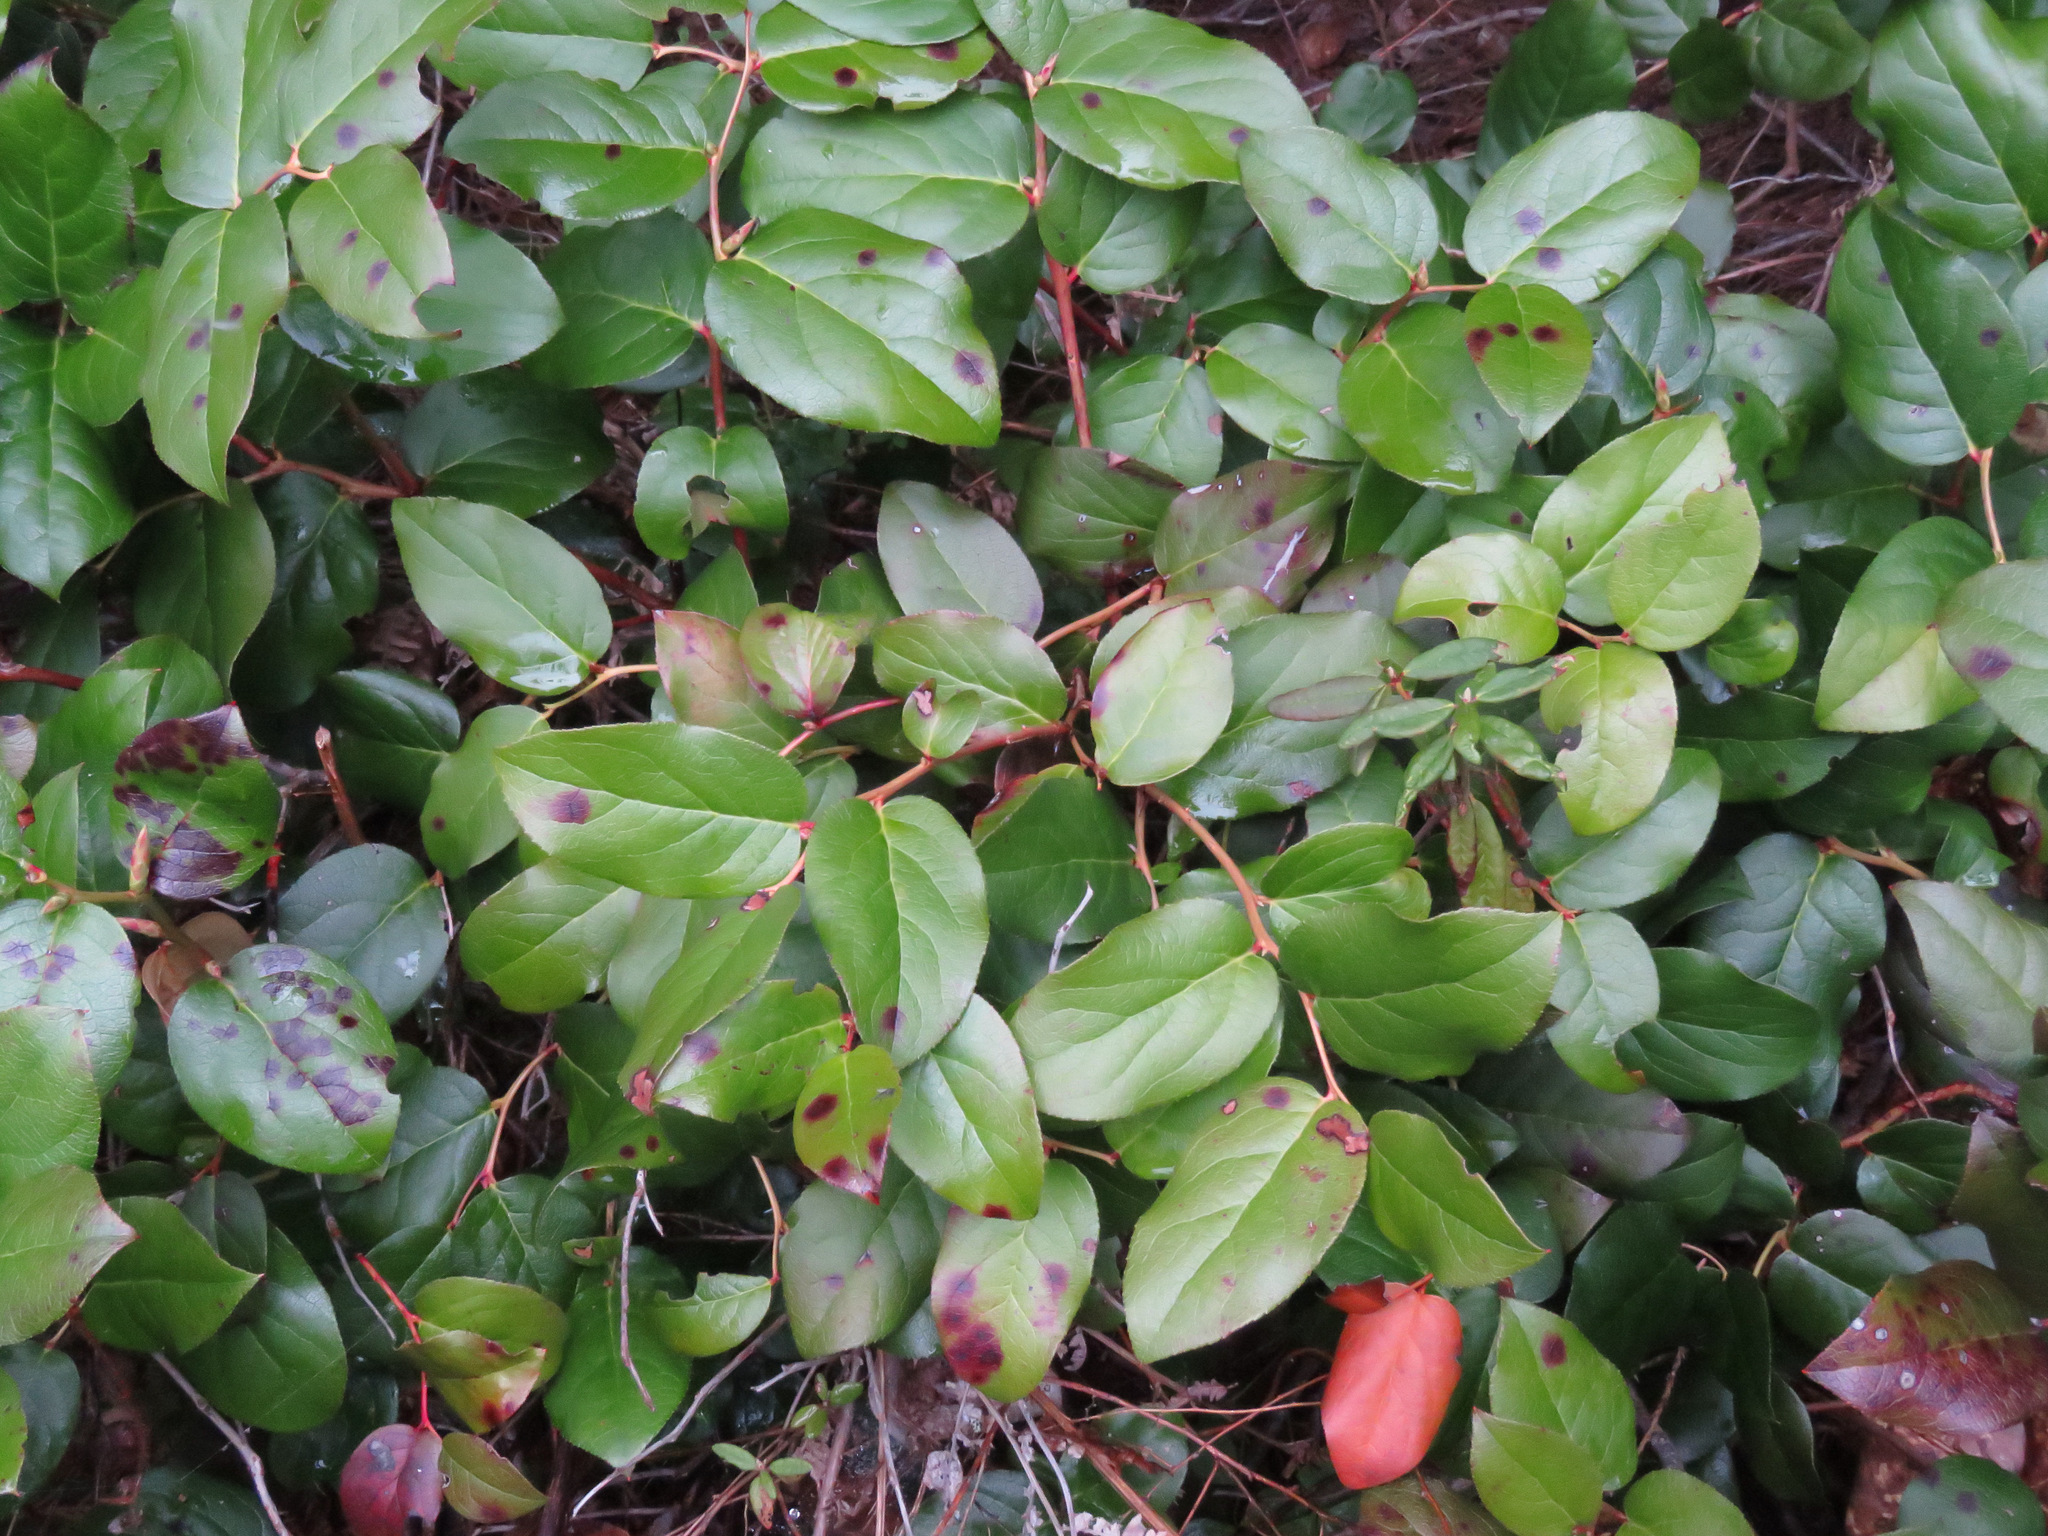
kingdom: Plantae
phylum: Tracheophyta
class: Magnoliopsida
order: Ericales
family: Ericaceae
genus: Gaultheria
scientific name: Gaultheria shallon
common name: Shallon
